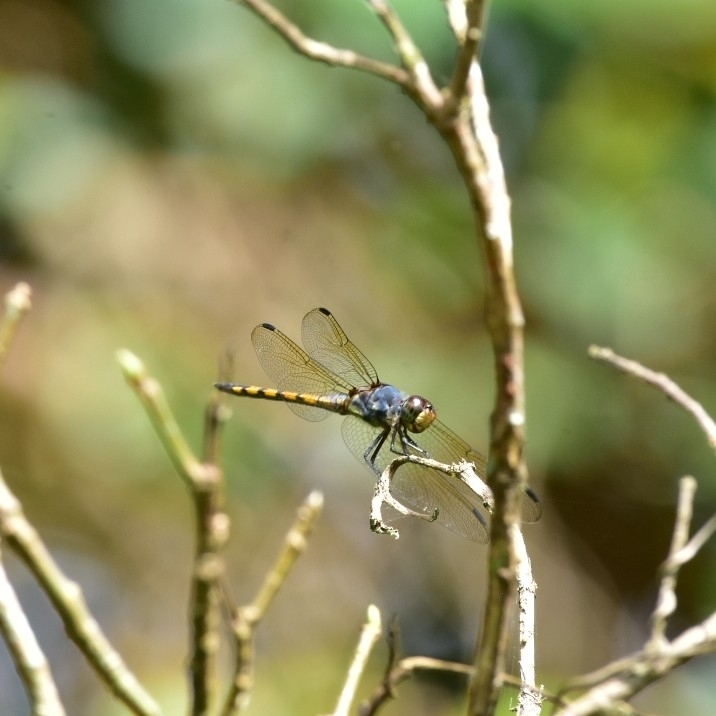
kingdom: Animalia
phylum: Arthropoda
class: Insecta
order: Odonata
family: Libellulidae
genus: Potamarcha
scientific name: Potamarcha congener
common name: Blue chaser
